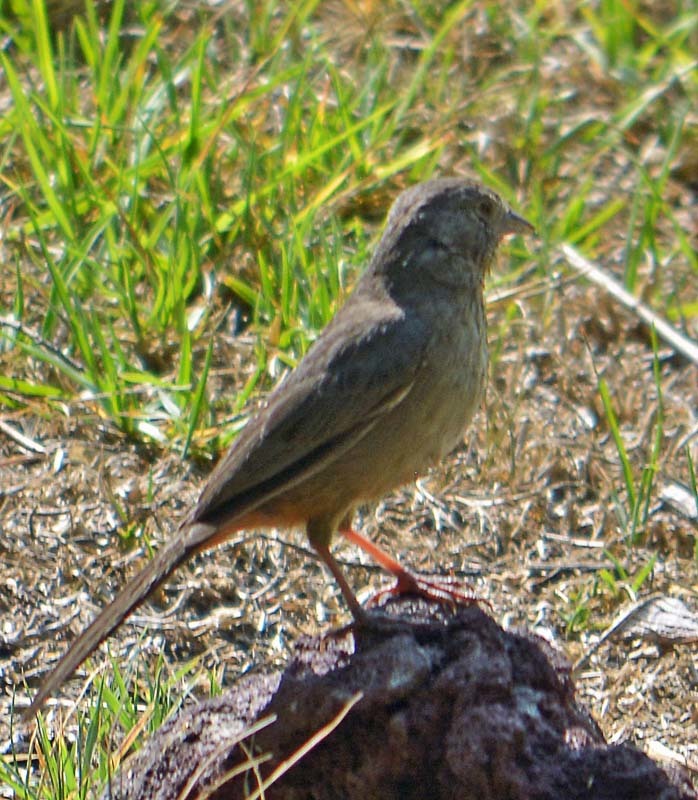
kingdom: Animalia
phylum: Chordata
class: Aves
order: Passeriformes
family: Passerellidae
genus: Melozone
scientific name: Melozone fusca
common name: Canyon towhee
